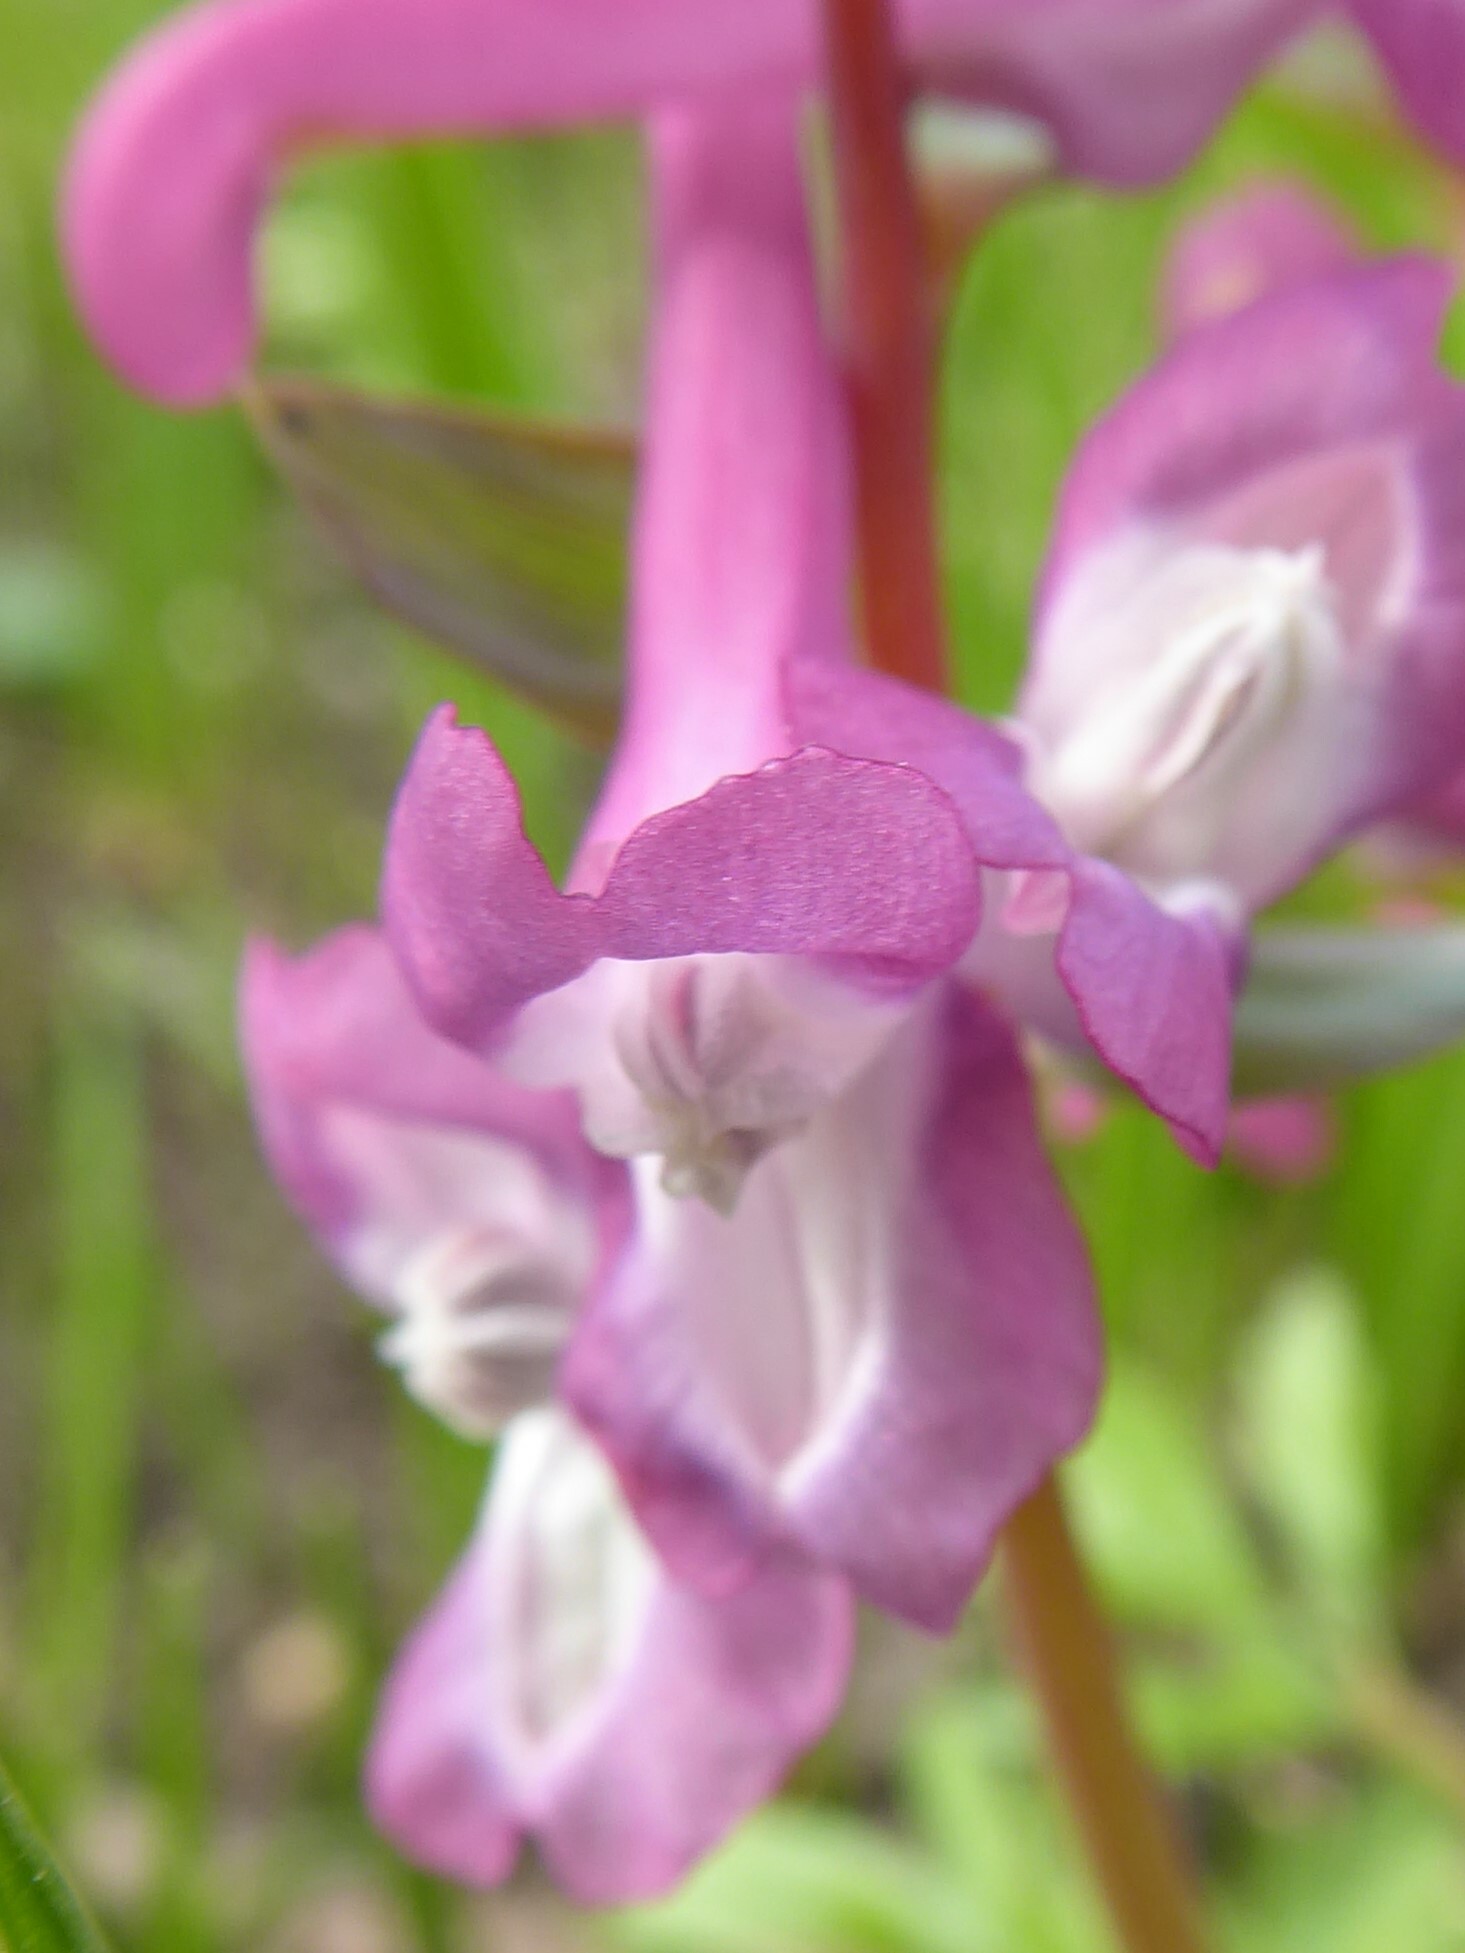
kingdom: Plantae
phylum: Tracheophyta
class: Magnoliopsida
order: Ranunculales
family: Papaveraceae
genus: Corydalis
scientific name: Corydalis cava
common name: Hollowroot
